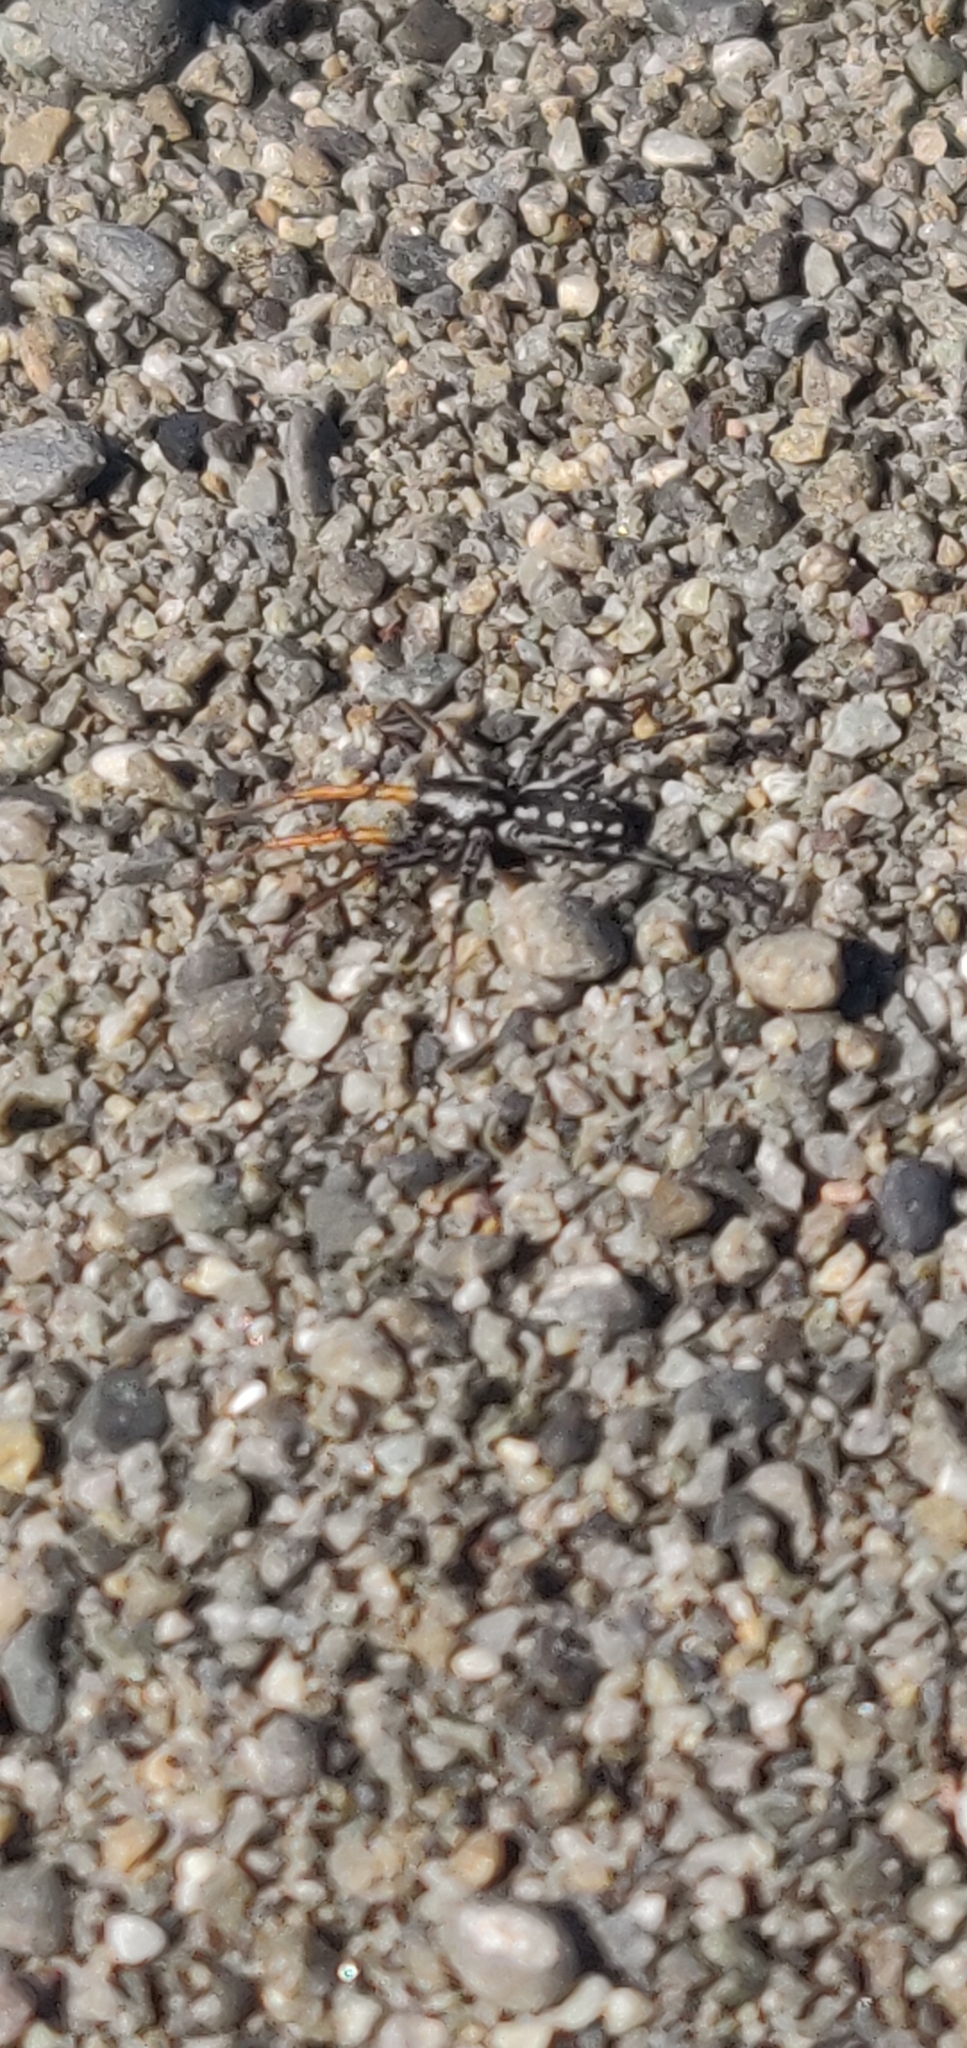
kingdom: Animalia
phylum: Arthropoda
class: Arachnida
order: Araneae
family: Corinnidae
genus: Nyssus
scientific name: Nyssus coloripes
